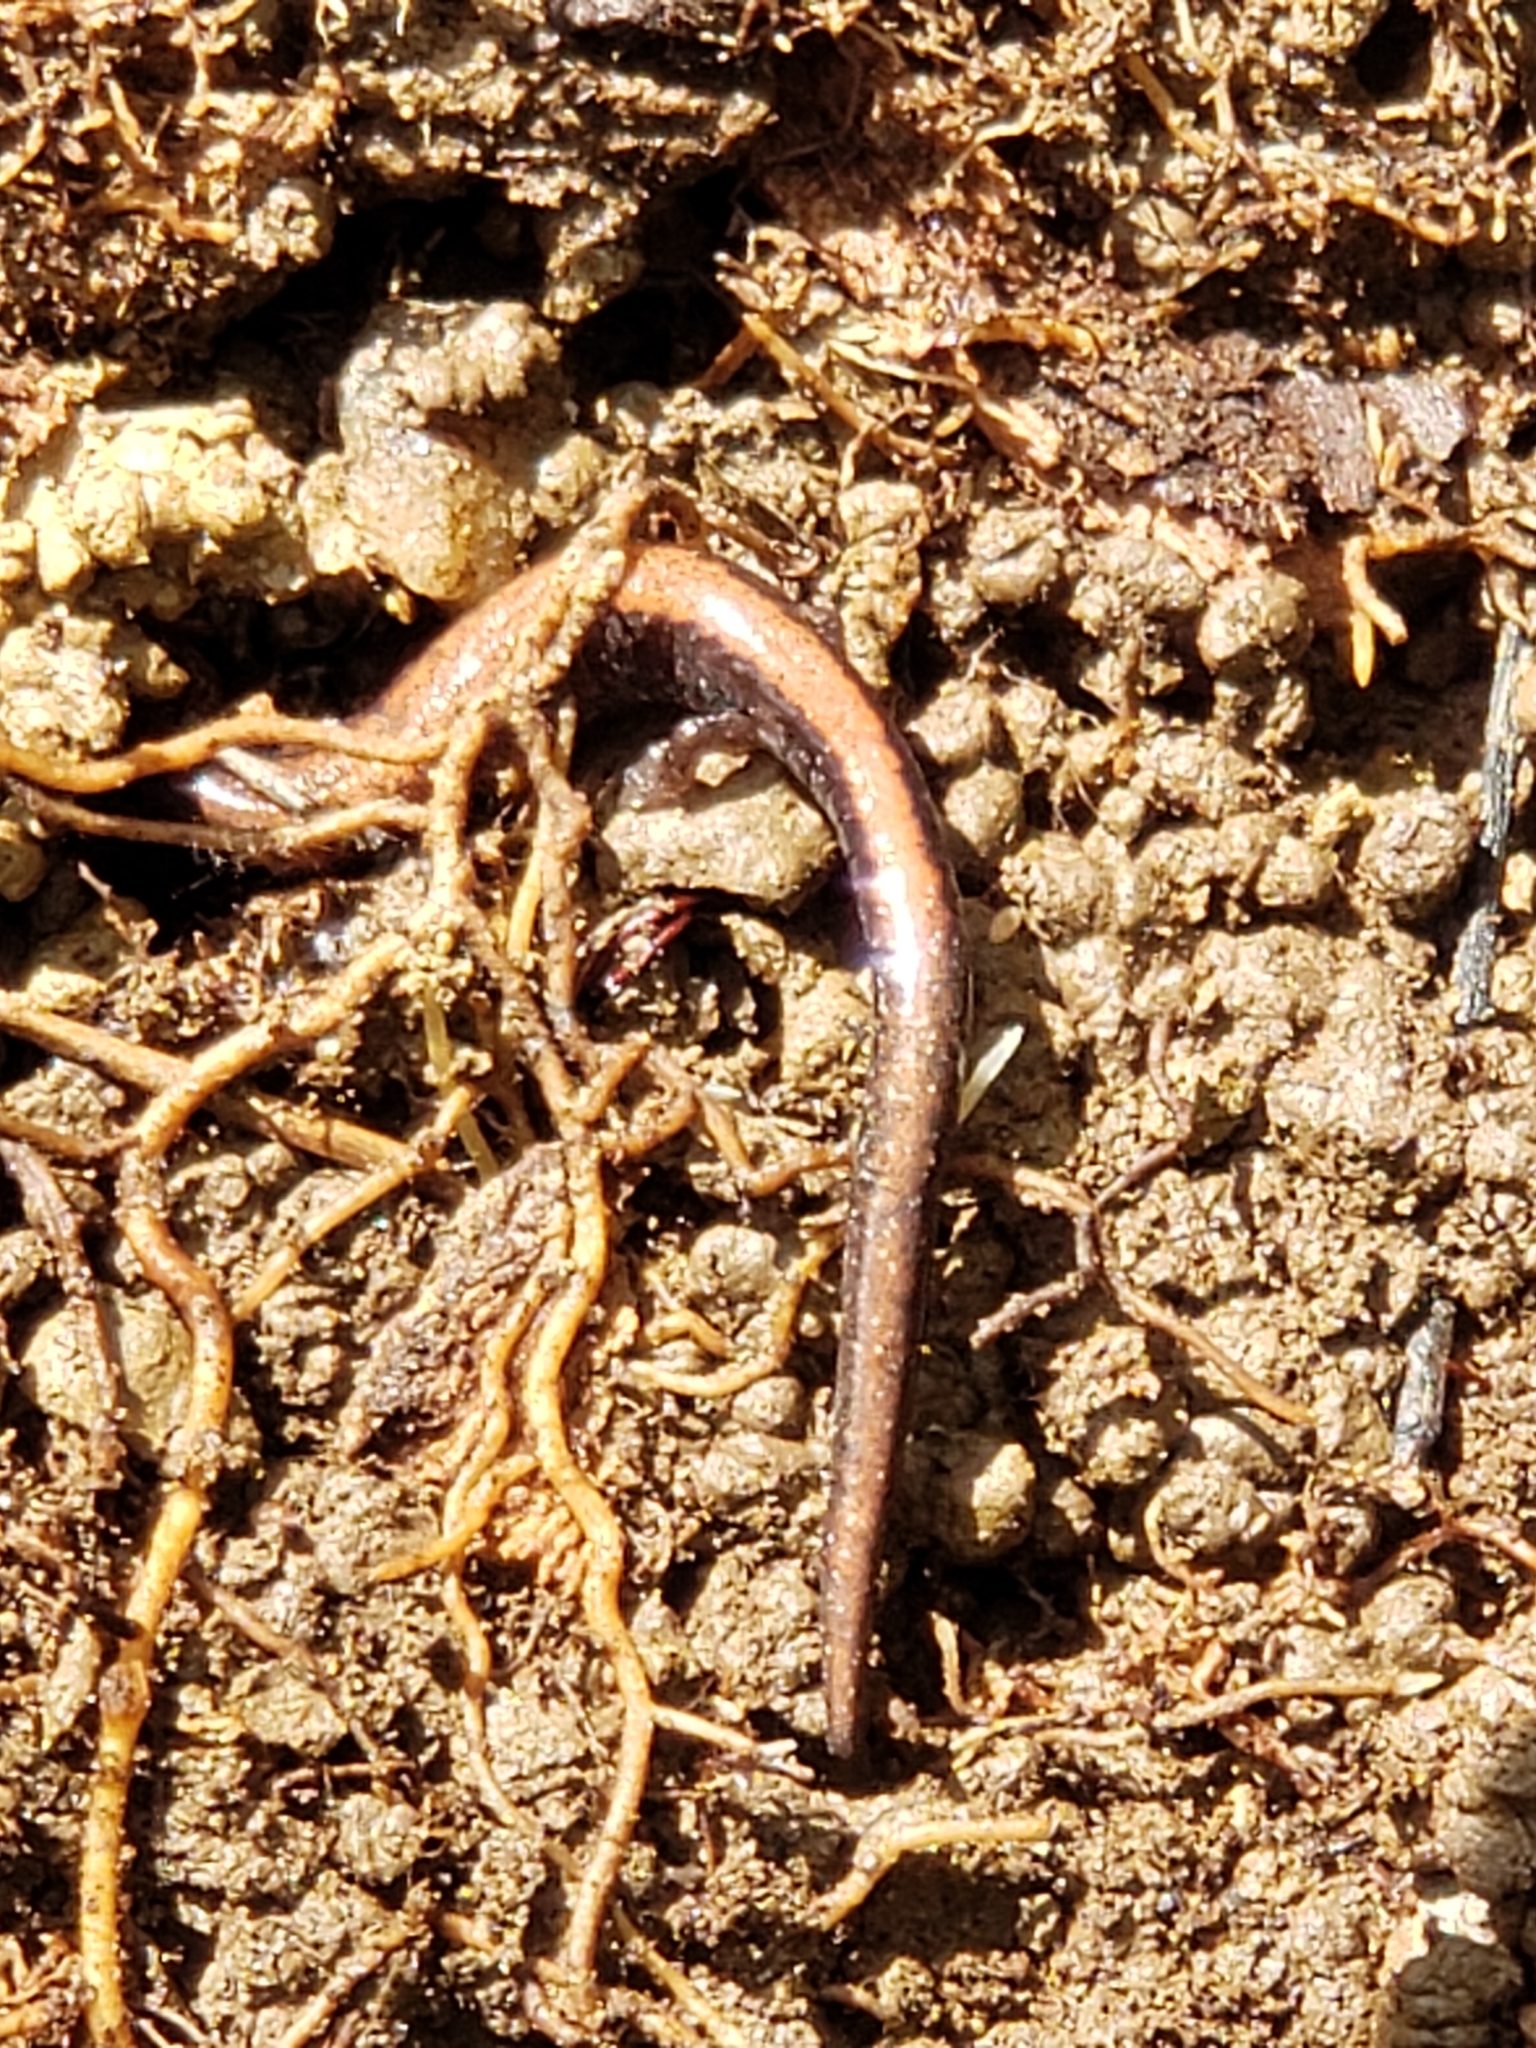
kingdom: Animalia
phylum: Chordata
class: Amphibia
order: Caudata
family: Plethodontidae
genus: Plethodon
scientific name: Plethodon cinereus
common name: Redback salamander
